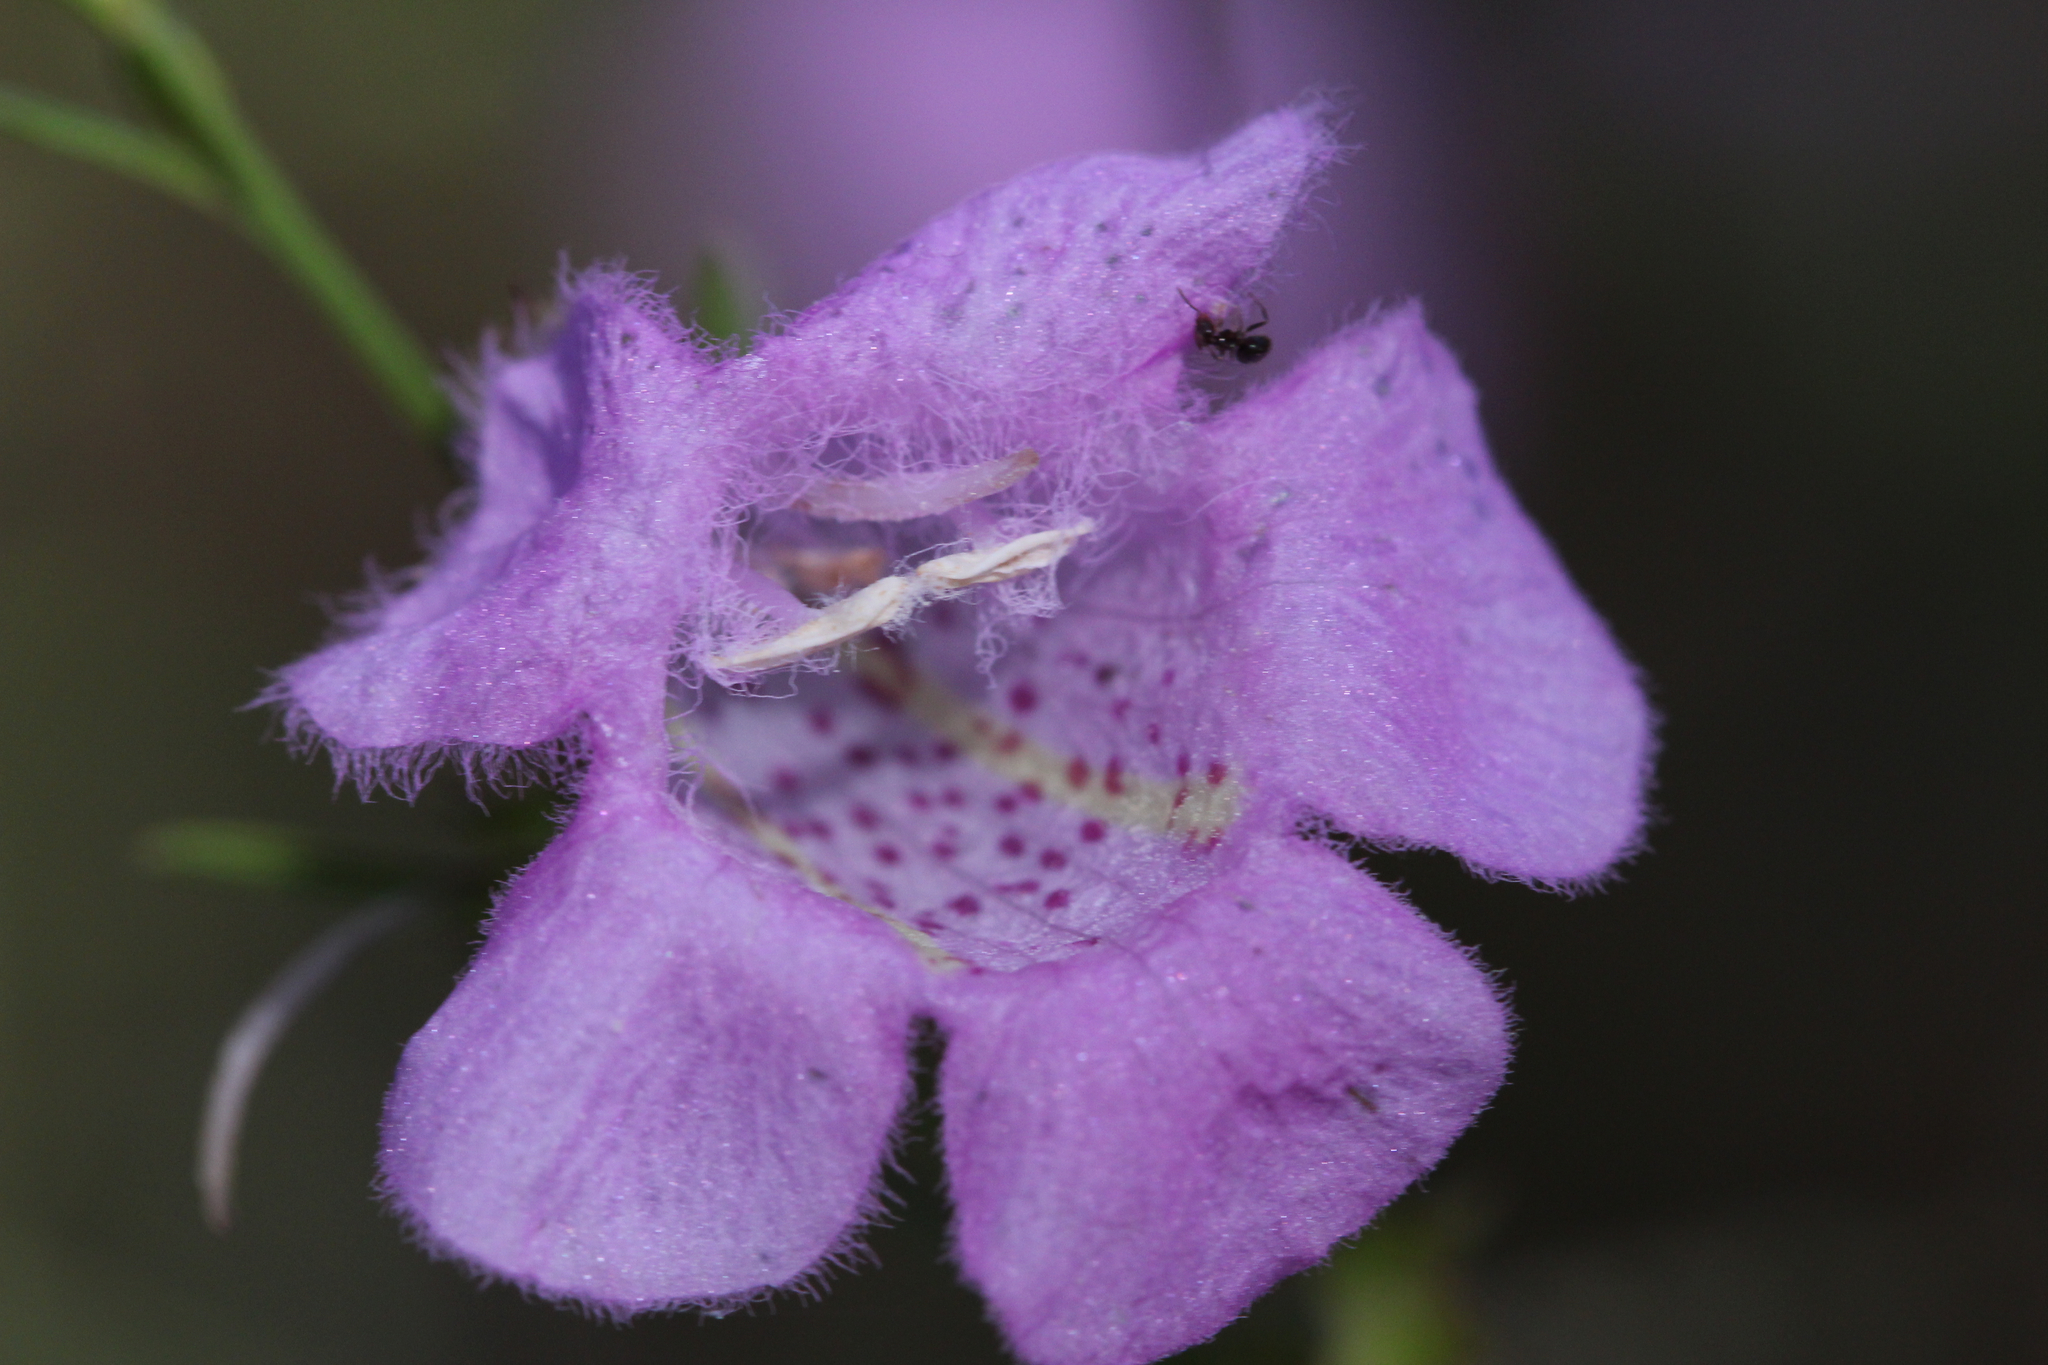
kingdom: Plantae
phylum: Tracheophyta
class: Magnoliopsida
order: Lamiales
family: Orobanchaceae
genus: Agalinis
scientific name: Agalinis fasciculata
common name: Beach false foxglove
